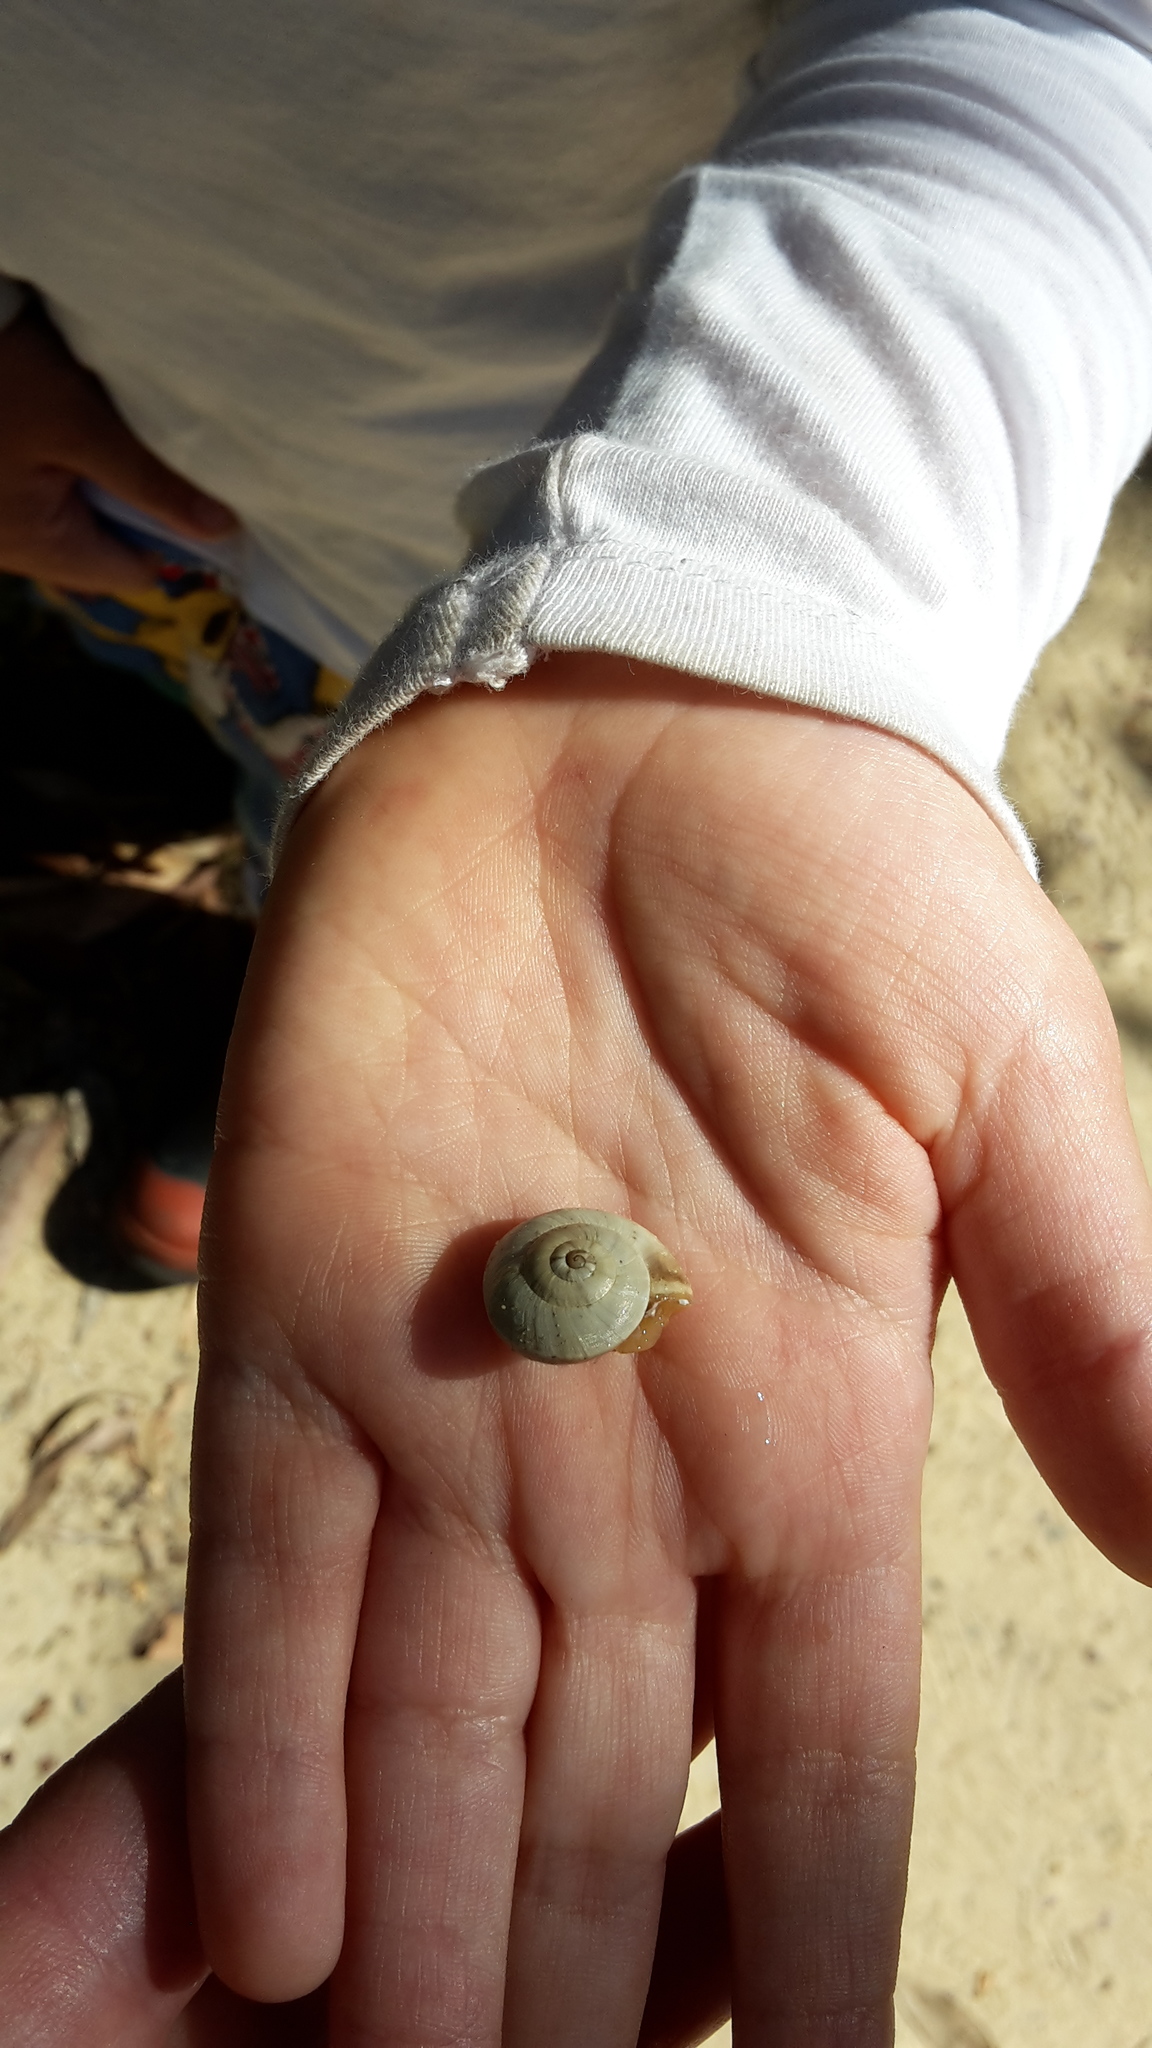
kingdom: Animalia
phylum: Mollusca
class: Gastropoda
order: Stylommatophora
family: Helicidae
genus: Theba
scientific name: Theba pisana
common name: White snail
